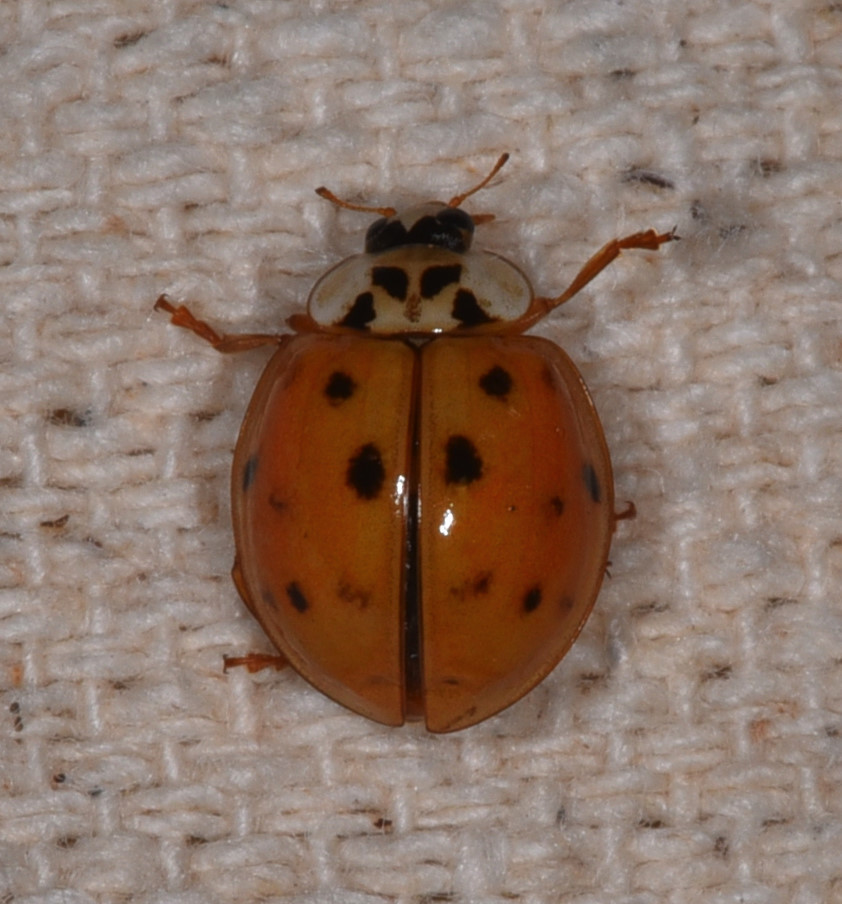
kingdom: Animalia
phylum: Arthropoda
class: Insecta
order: Coleoptera
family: Coccinellidae
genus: Harmonia
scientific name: Harmonia axyridis
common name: Harlequin ladybird
